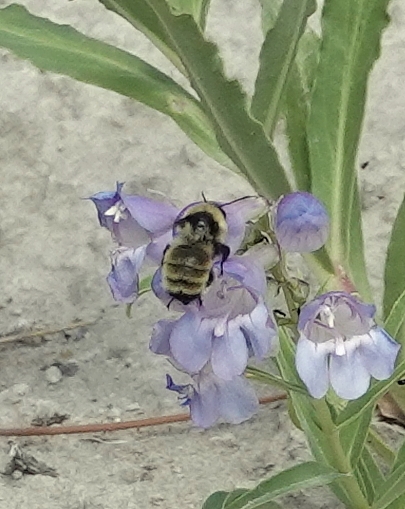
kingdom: Animalia
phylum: Arthropoda
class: Insecta
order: Hymenoptera
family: Apidae
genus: Bombus
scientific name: Bombus fervidus
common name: Yellow bumble bee
